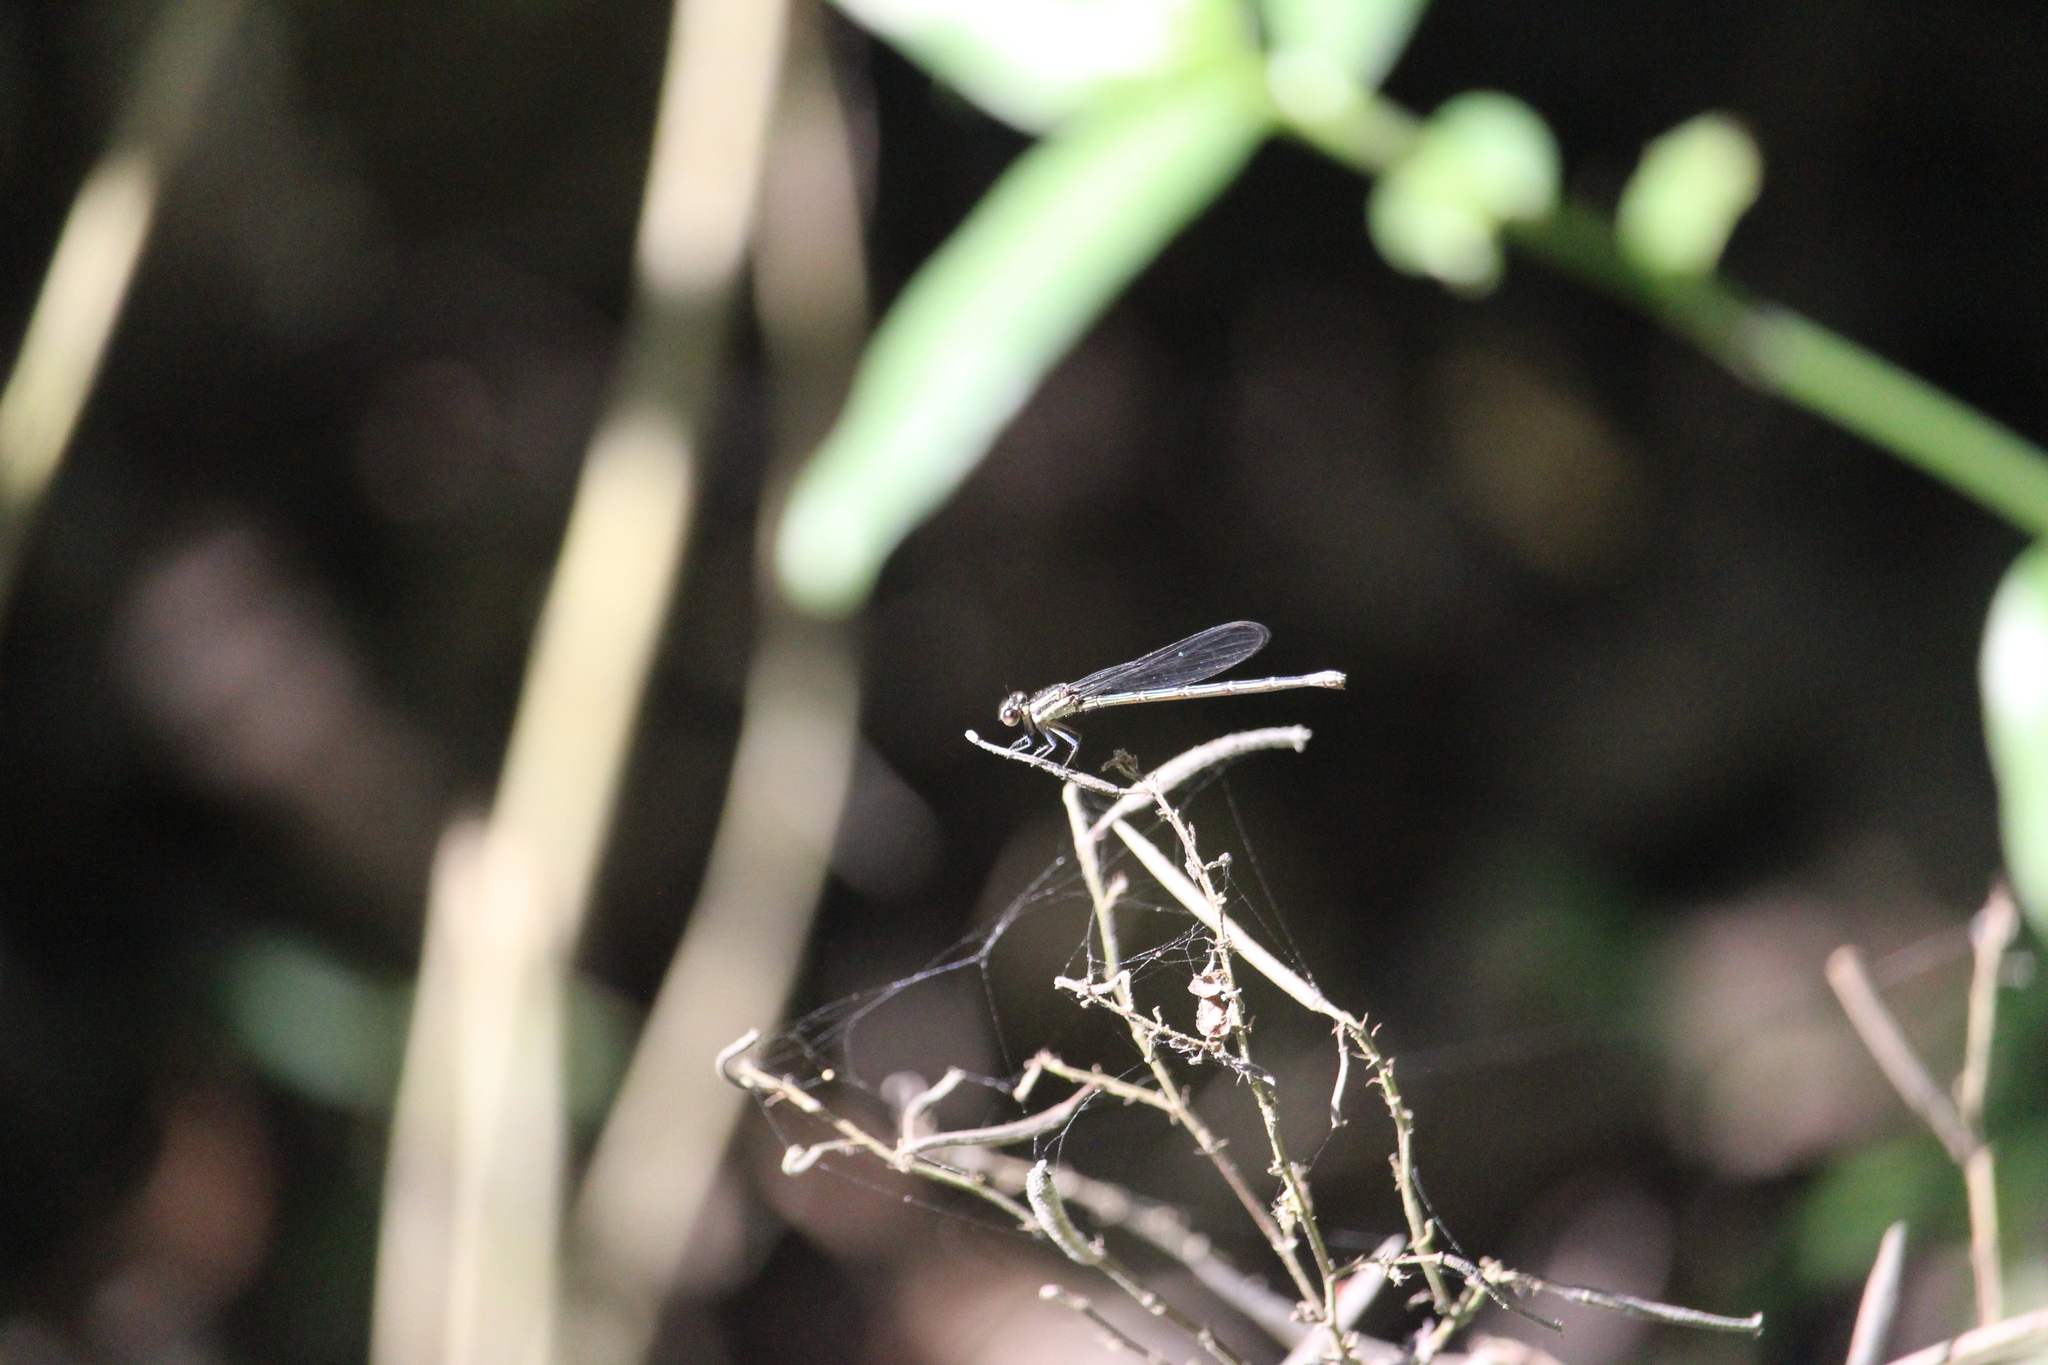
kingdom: Animalia
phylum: Arthropoda
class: Insecta
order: Odonata
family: Coenagrionidae
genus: Argia
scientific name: Argia translata
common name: Dusky dancer
